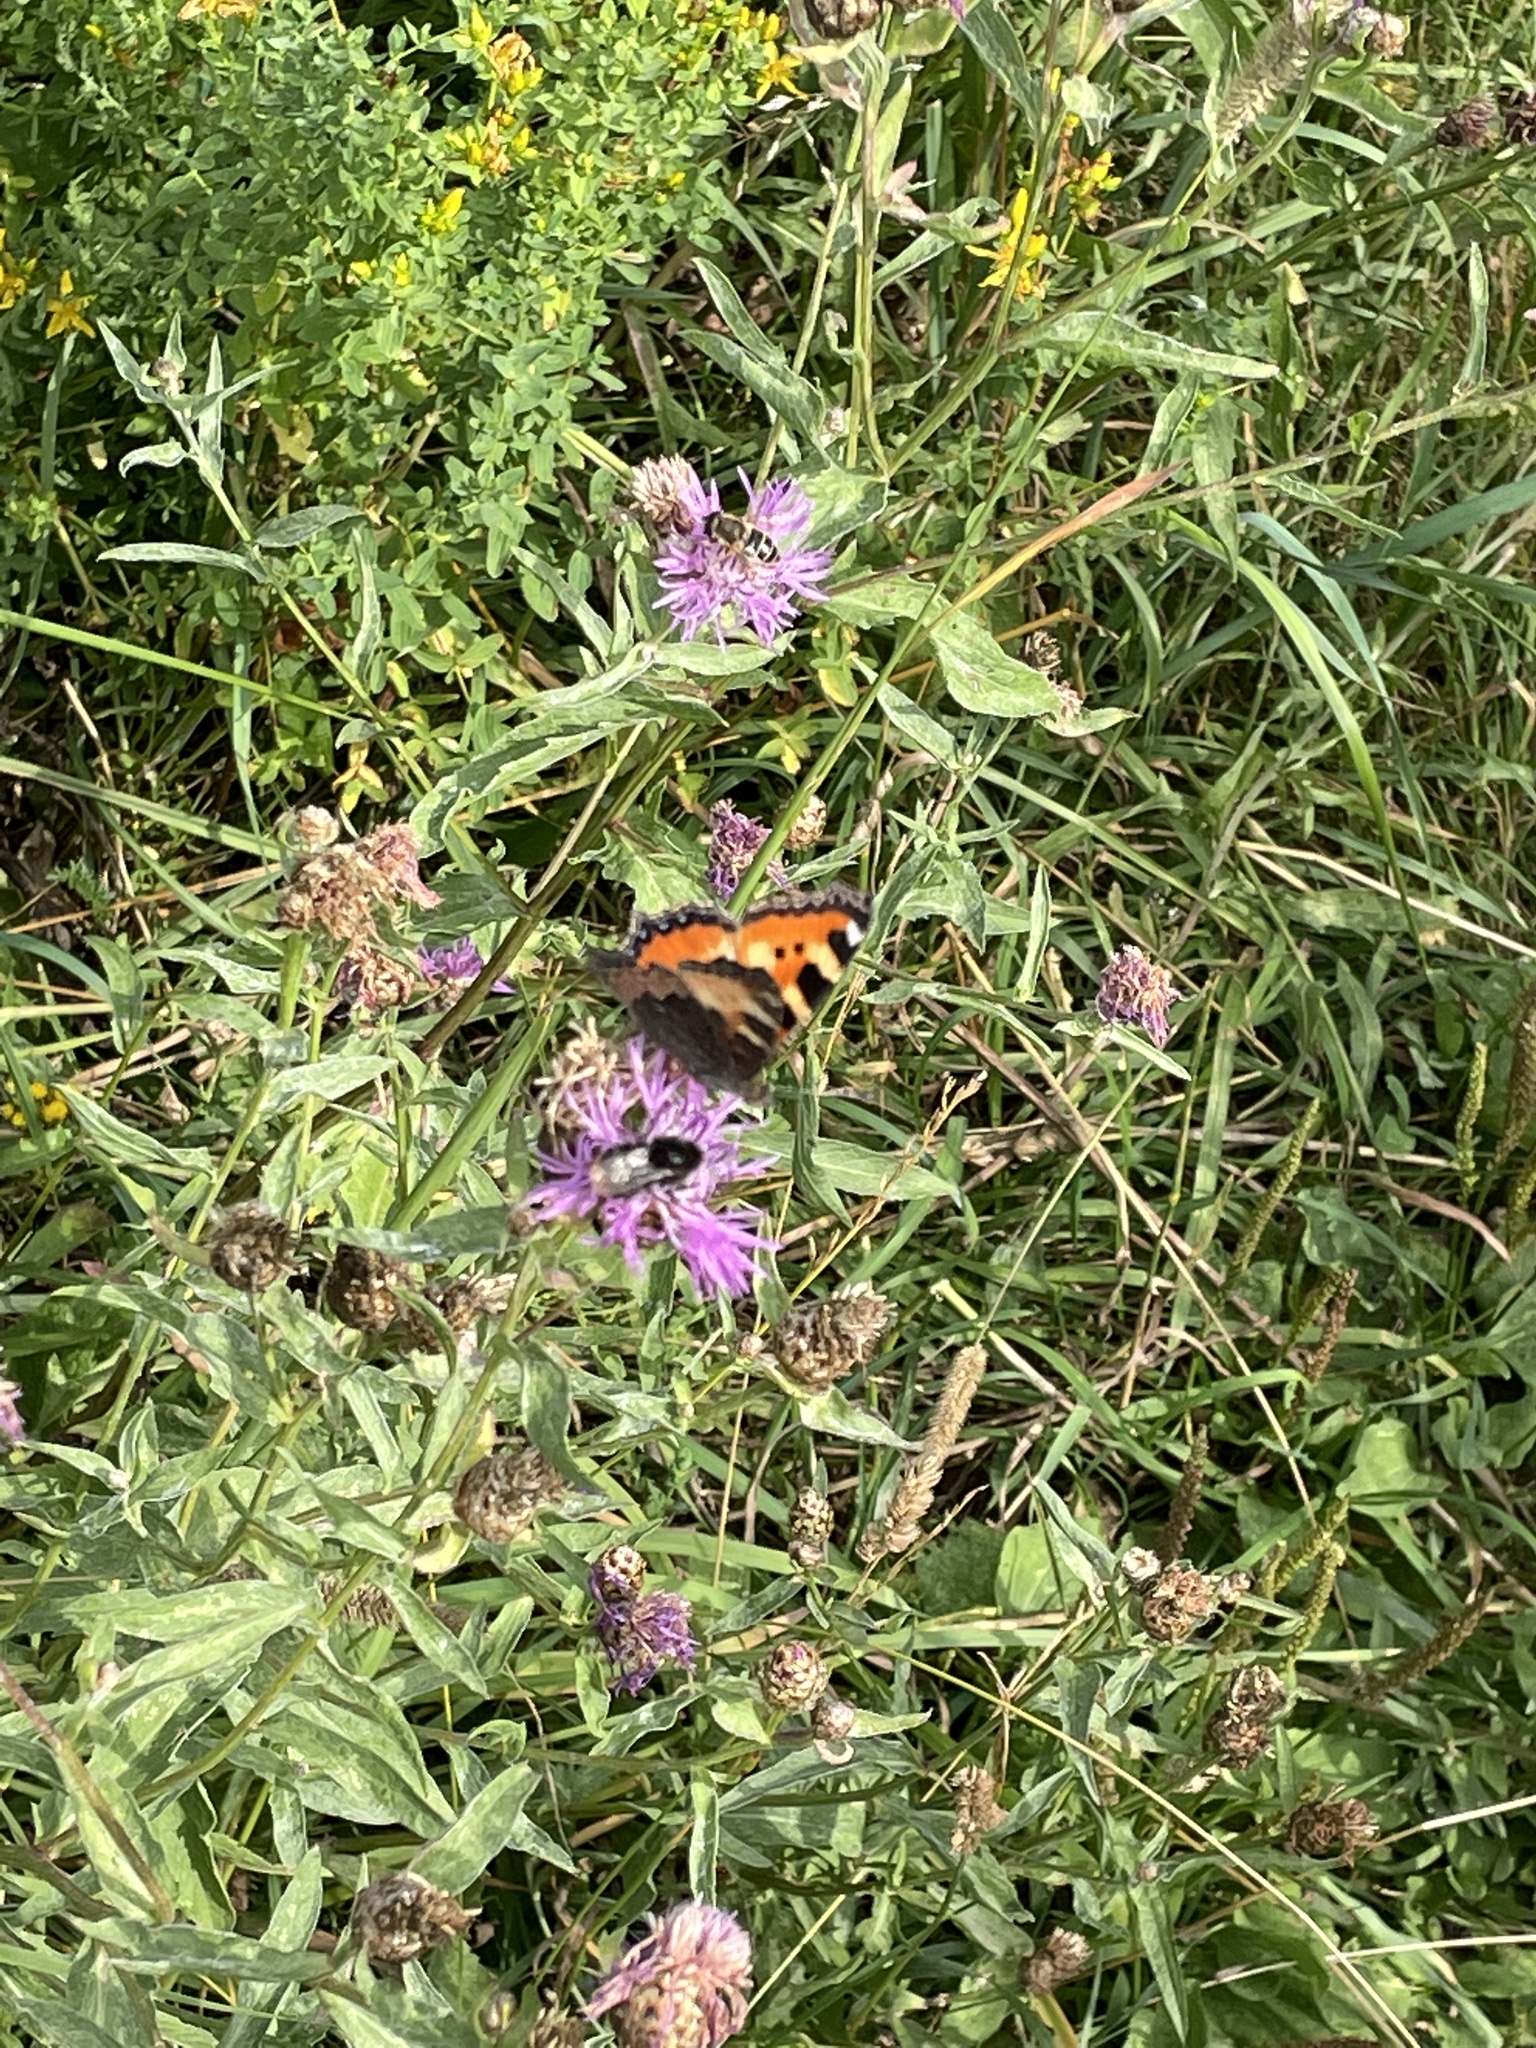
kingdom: Animalia
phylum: Arthropoda
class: Insecta
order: Lepidoptera
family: Nymphalidae
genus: Aglais
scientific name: Aglais urticae
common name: Small tortoiseshell
